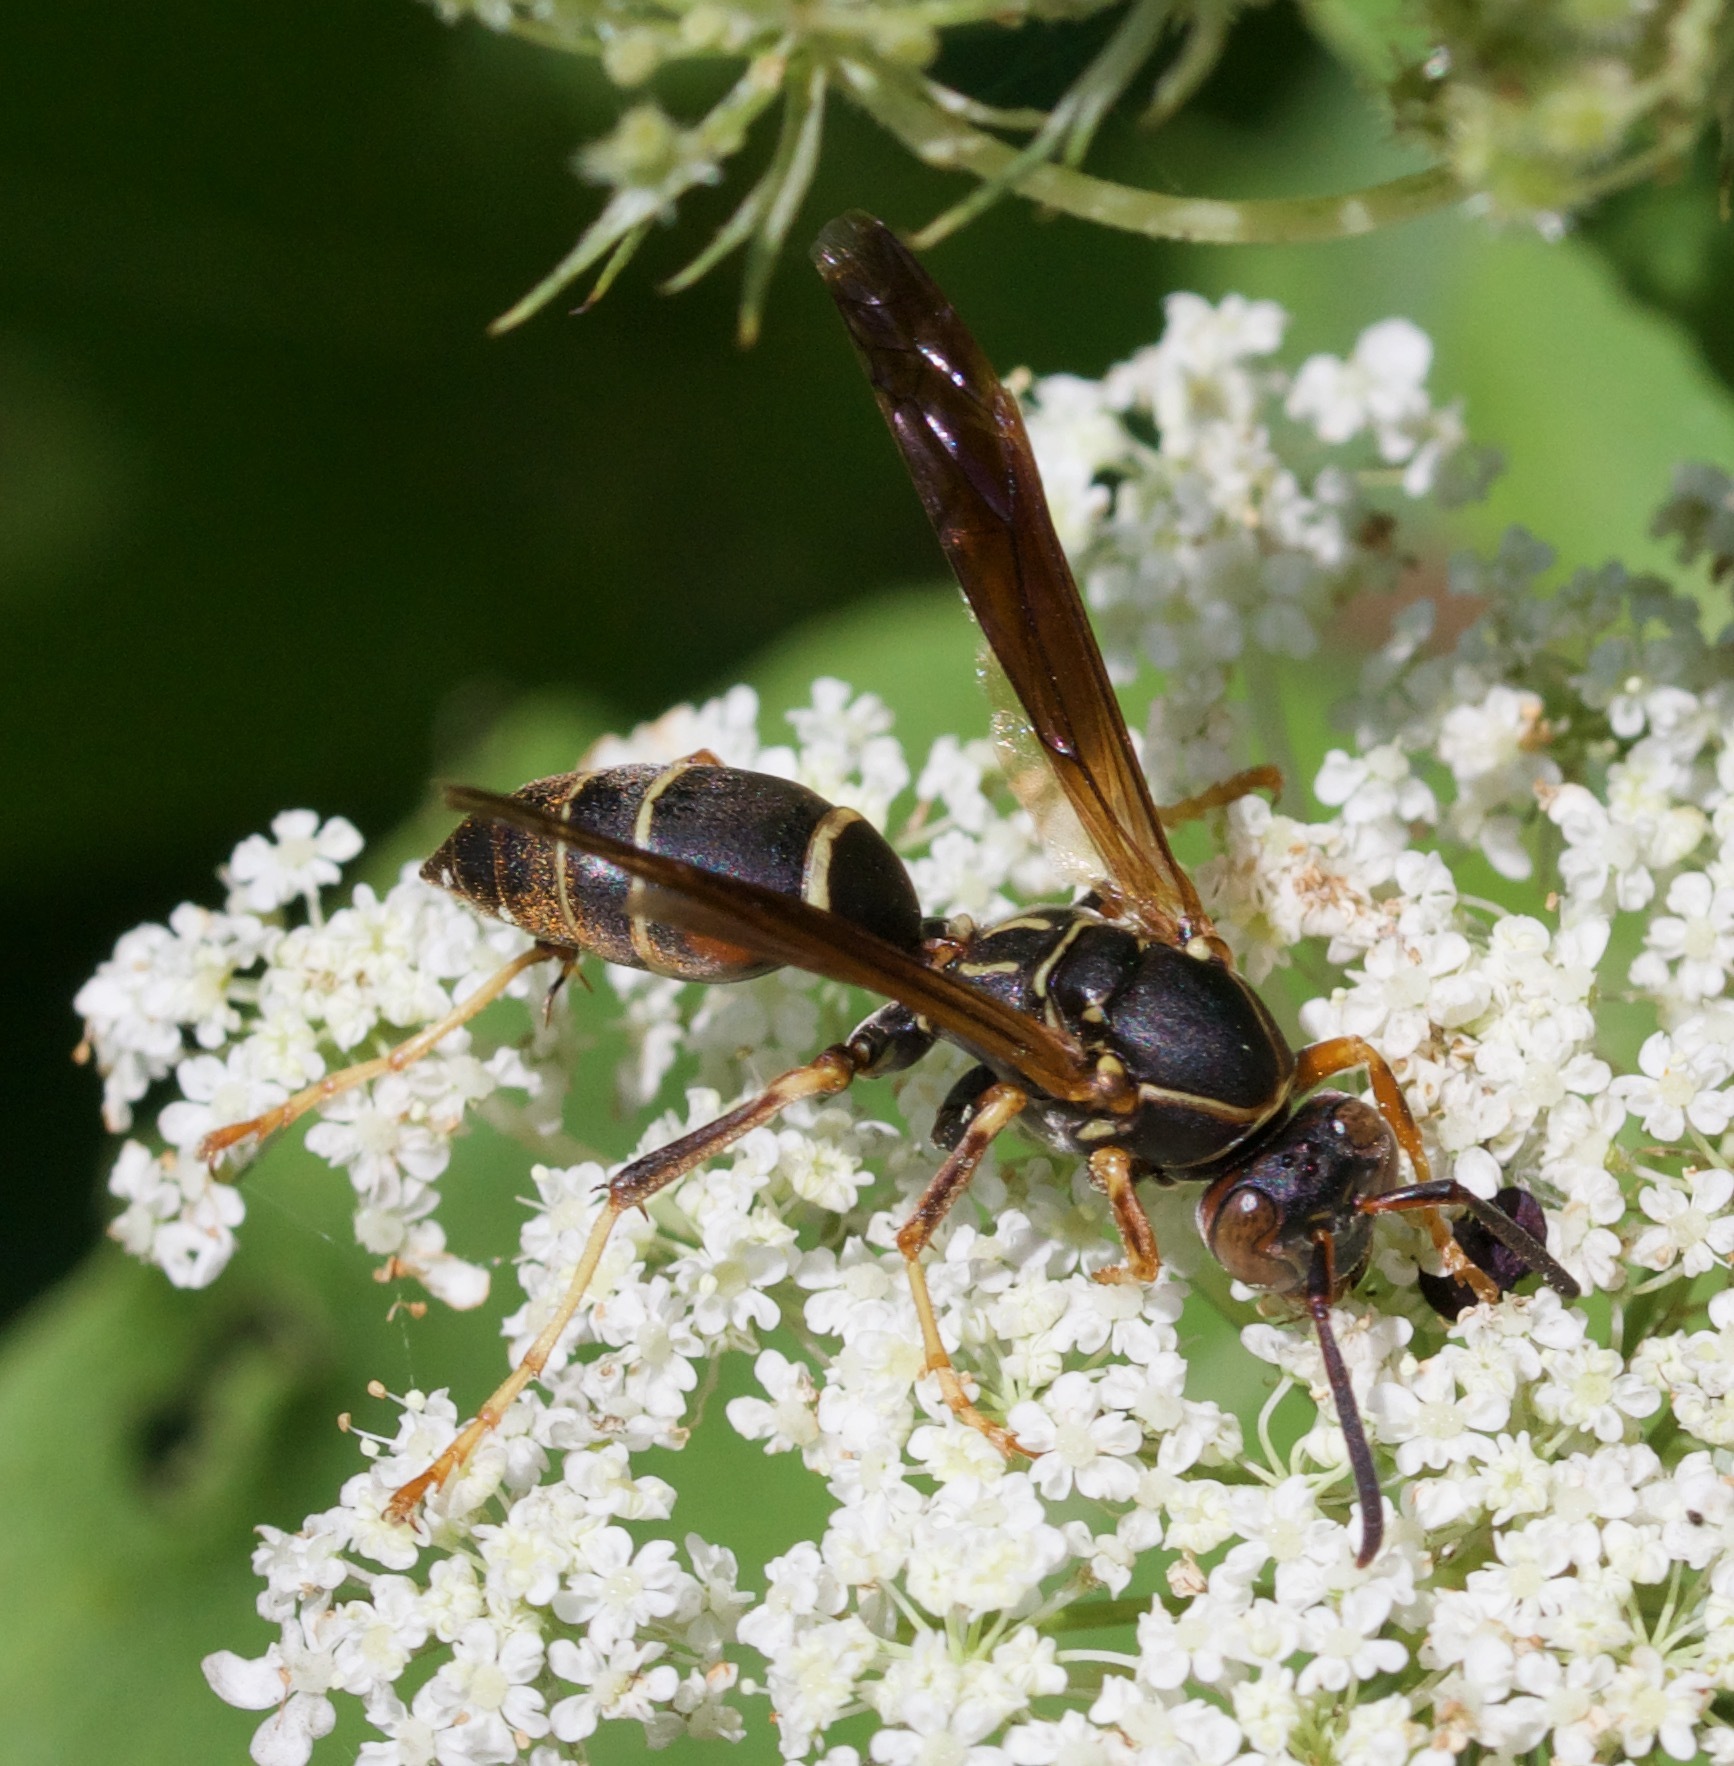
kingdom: Animalia
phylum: Arthropoda
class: Insecta
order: Hymenoptera
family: Eumenidae
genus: Polistes
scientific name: Polistes fuscatus
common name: Dark paper wasp
